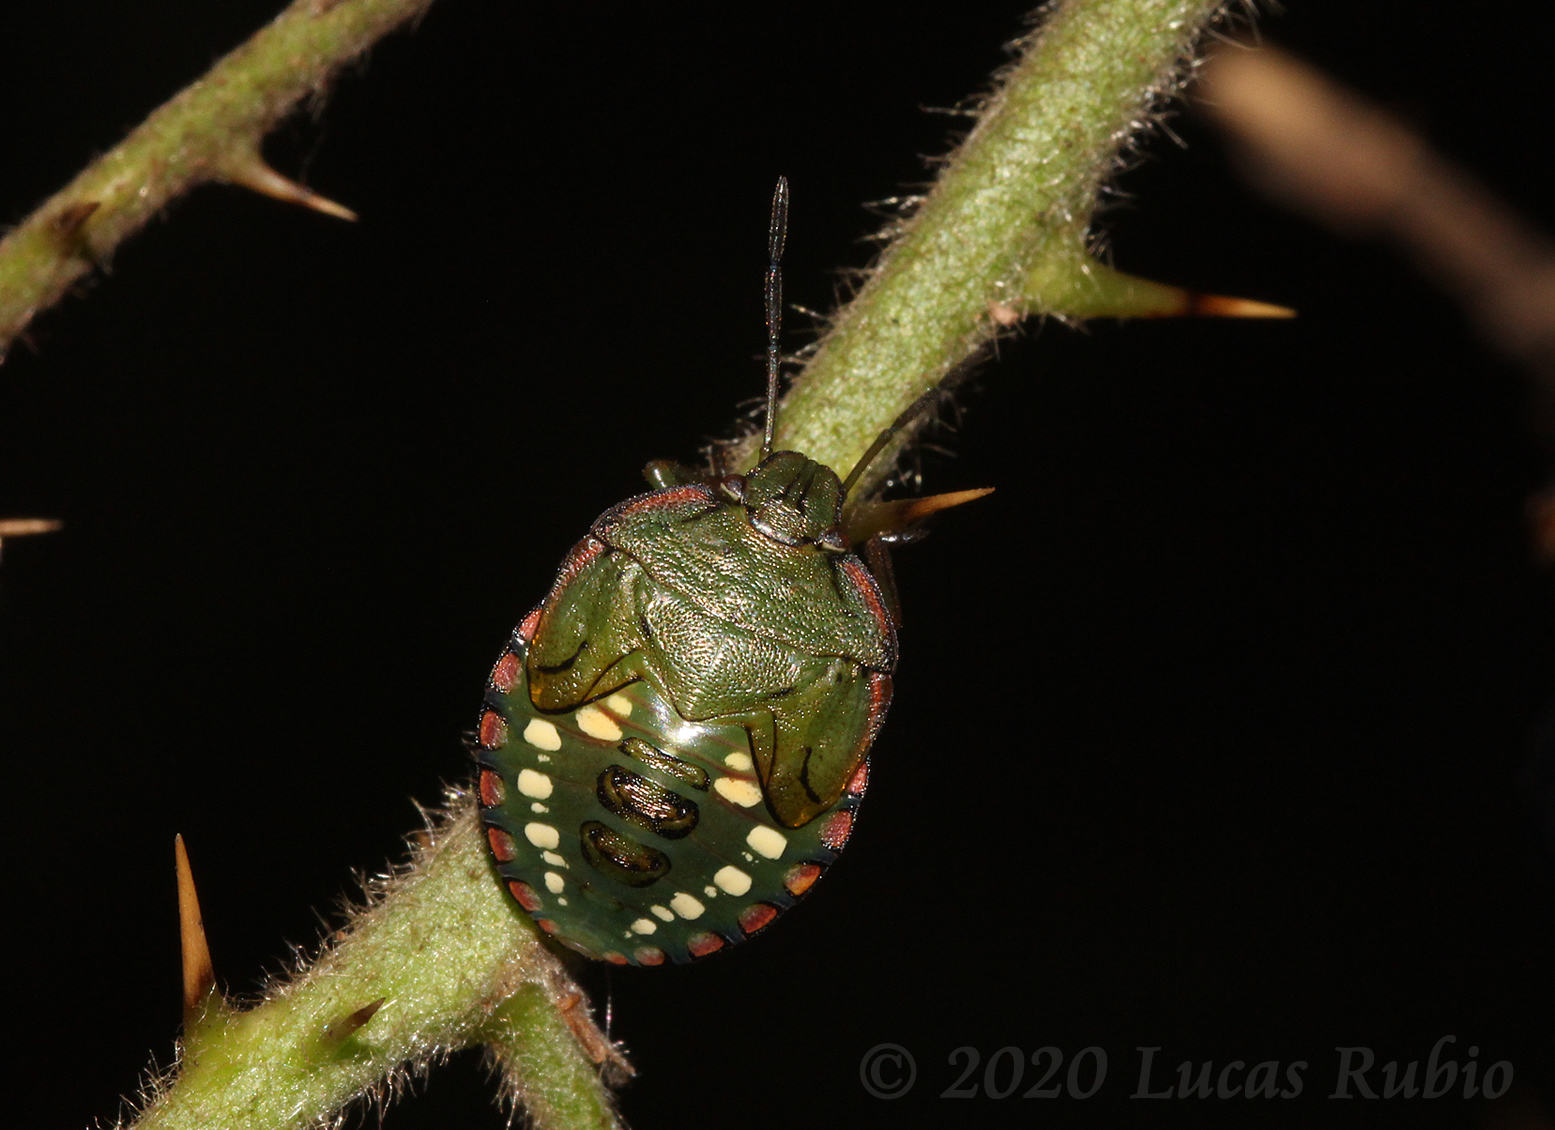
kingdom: Animalia
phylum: Arthropoda
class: Insecta
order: Hemiptera
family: Pentatomidae
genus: Chinavia
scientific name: Chinavia
